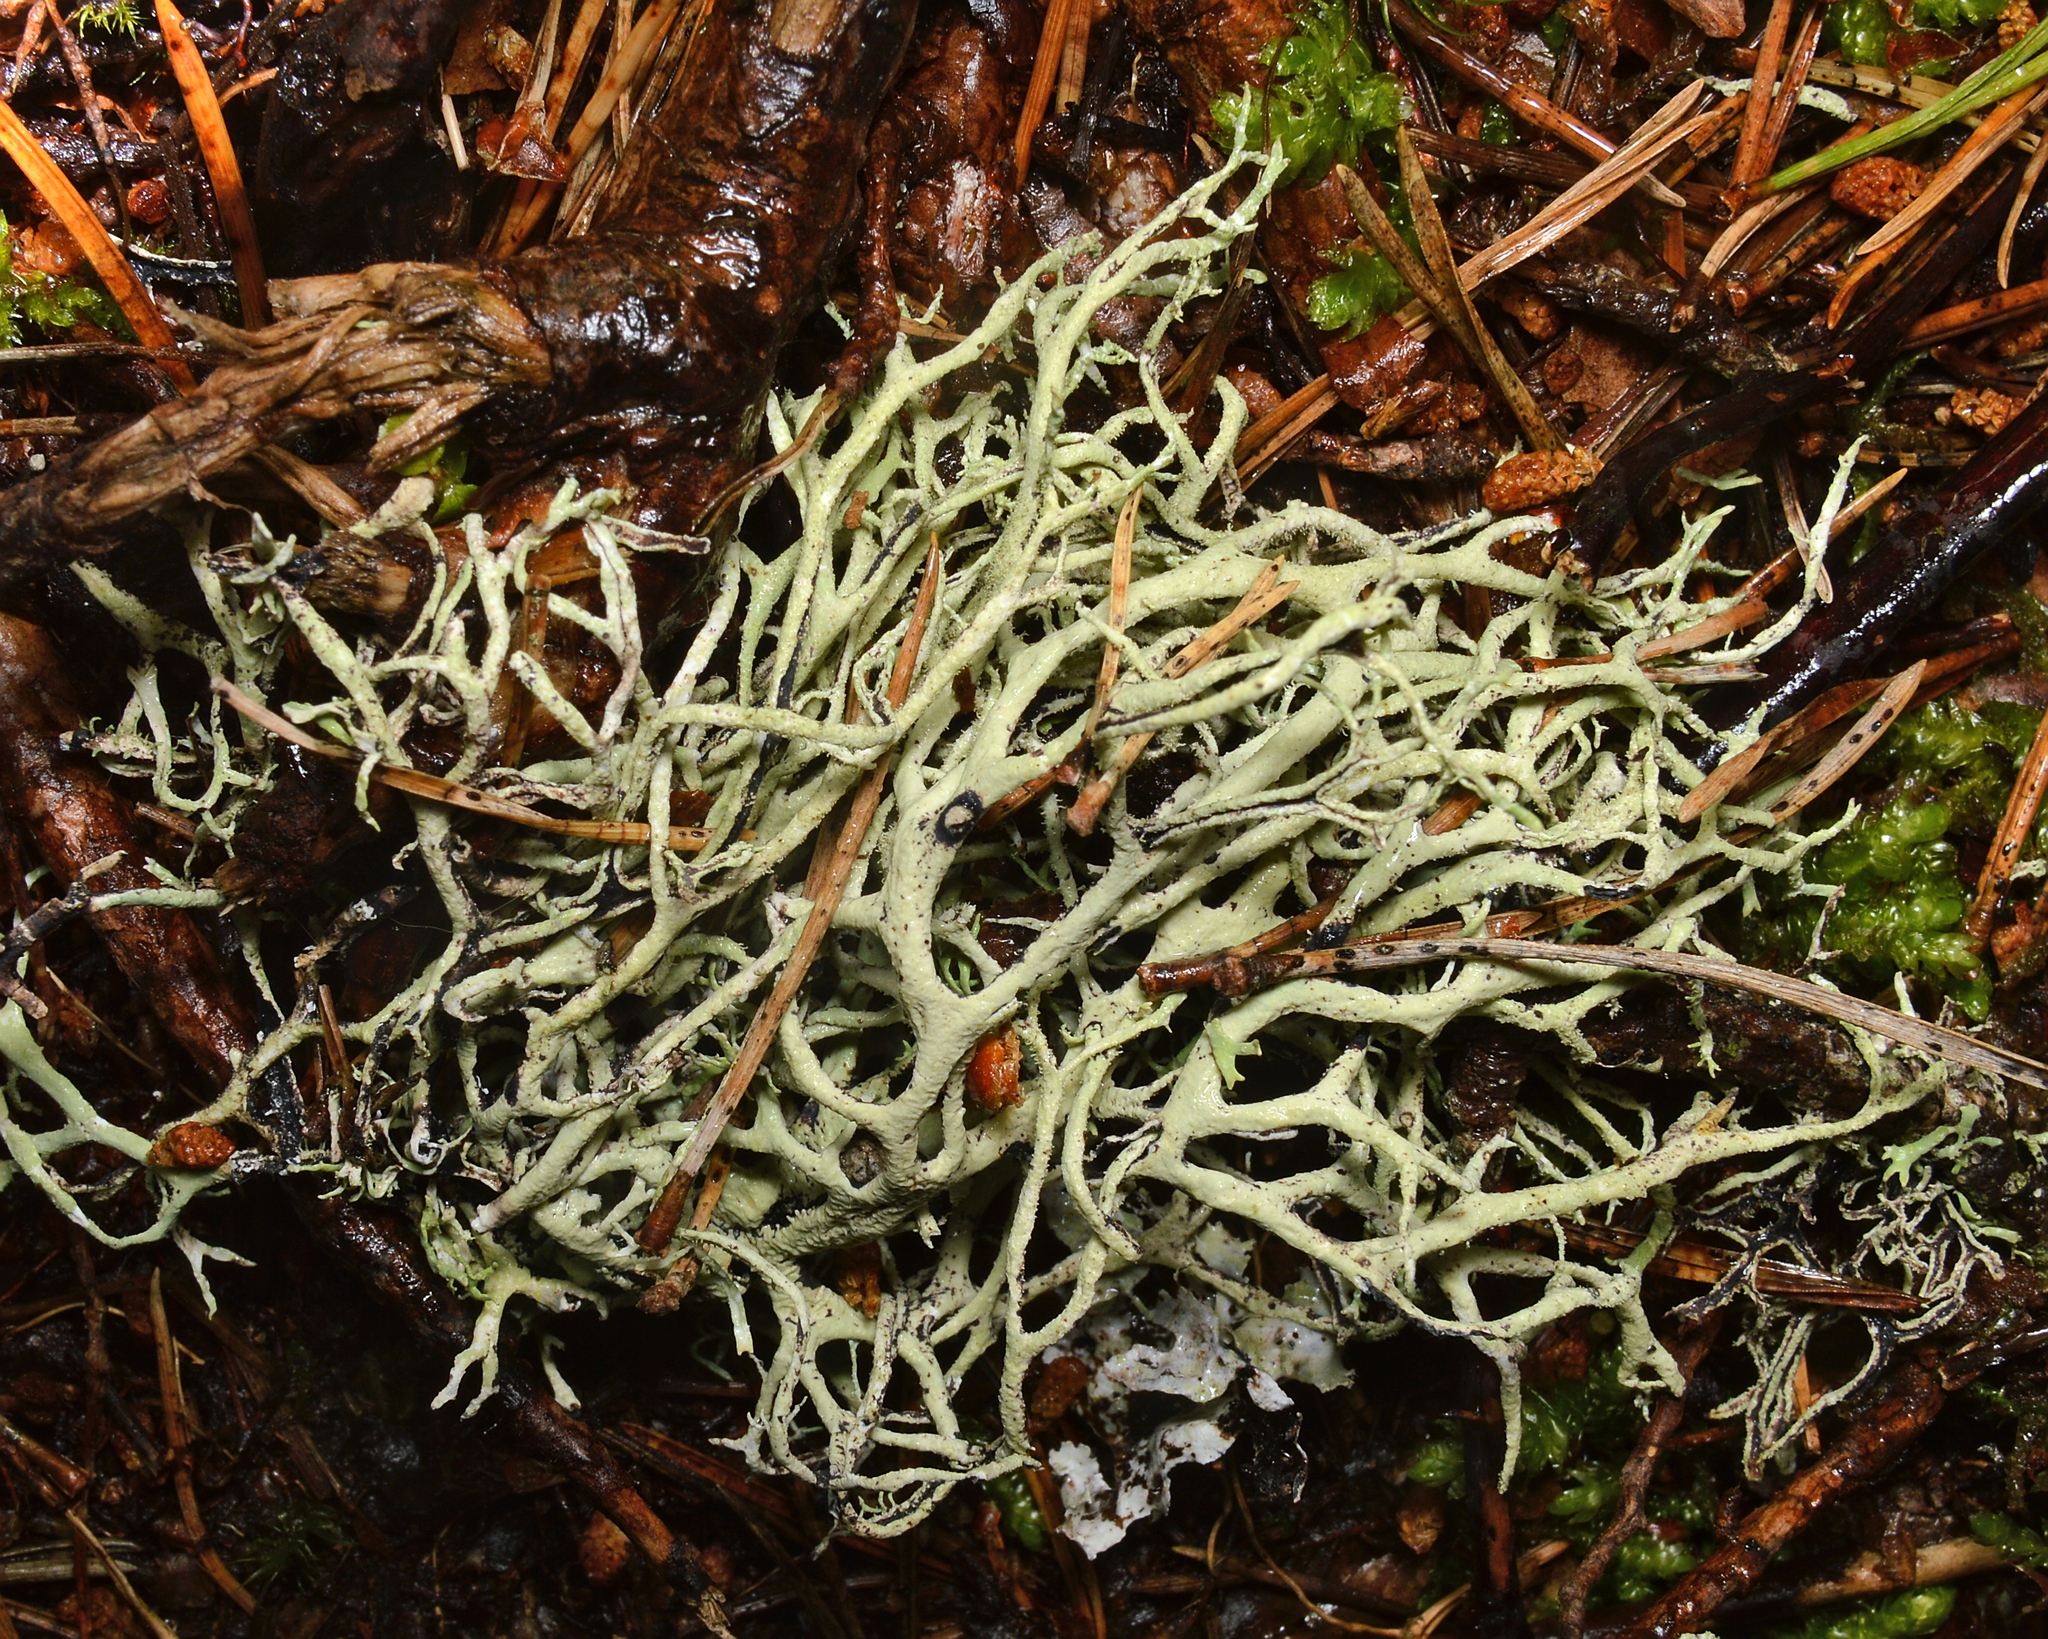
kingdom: Fungi
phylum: Ascomycota
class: Lecanoromycetes
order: Lecanorales
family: Parmeliaceae
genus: Pseudevernia
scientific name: Pseudevernia furfuracea
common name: Tree moss
